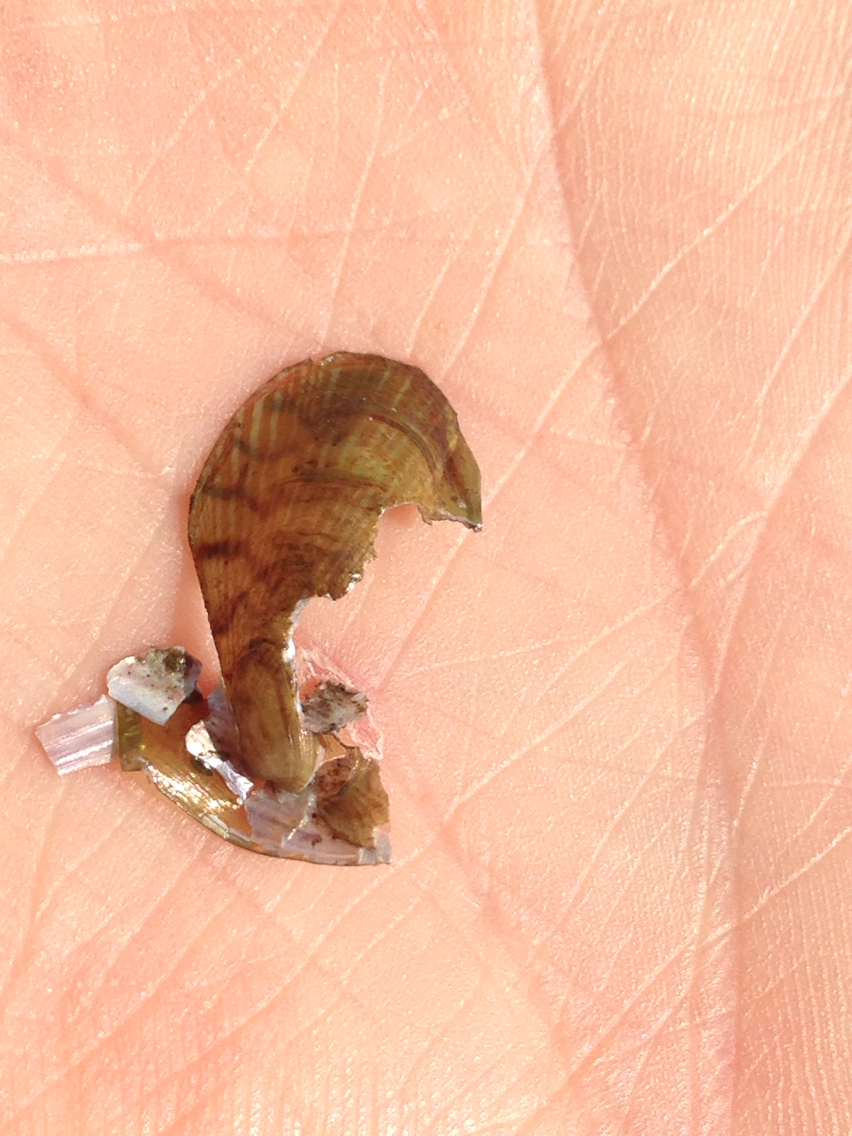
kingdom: Animalia
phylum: Mollusca
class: Bivalvia
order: Mytilida
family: Mytilidae
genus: Arcuatula
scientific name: Arcuatula senhousia
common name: Asian mussel
